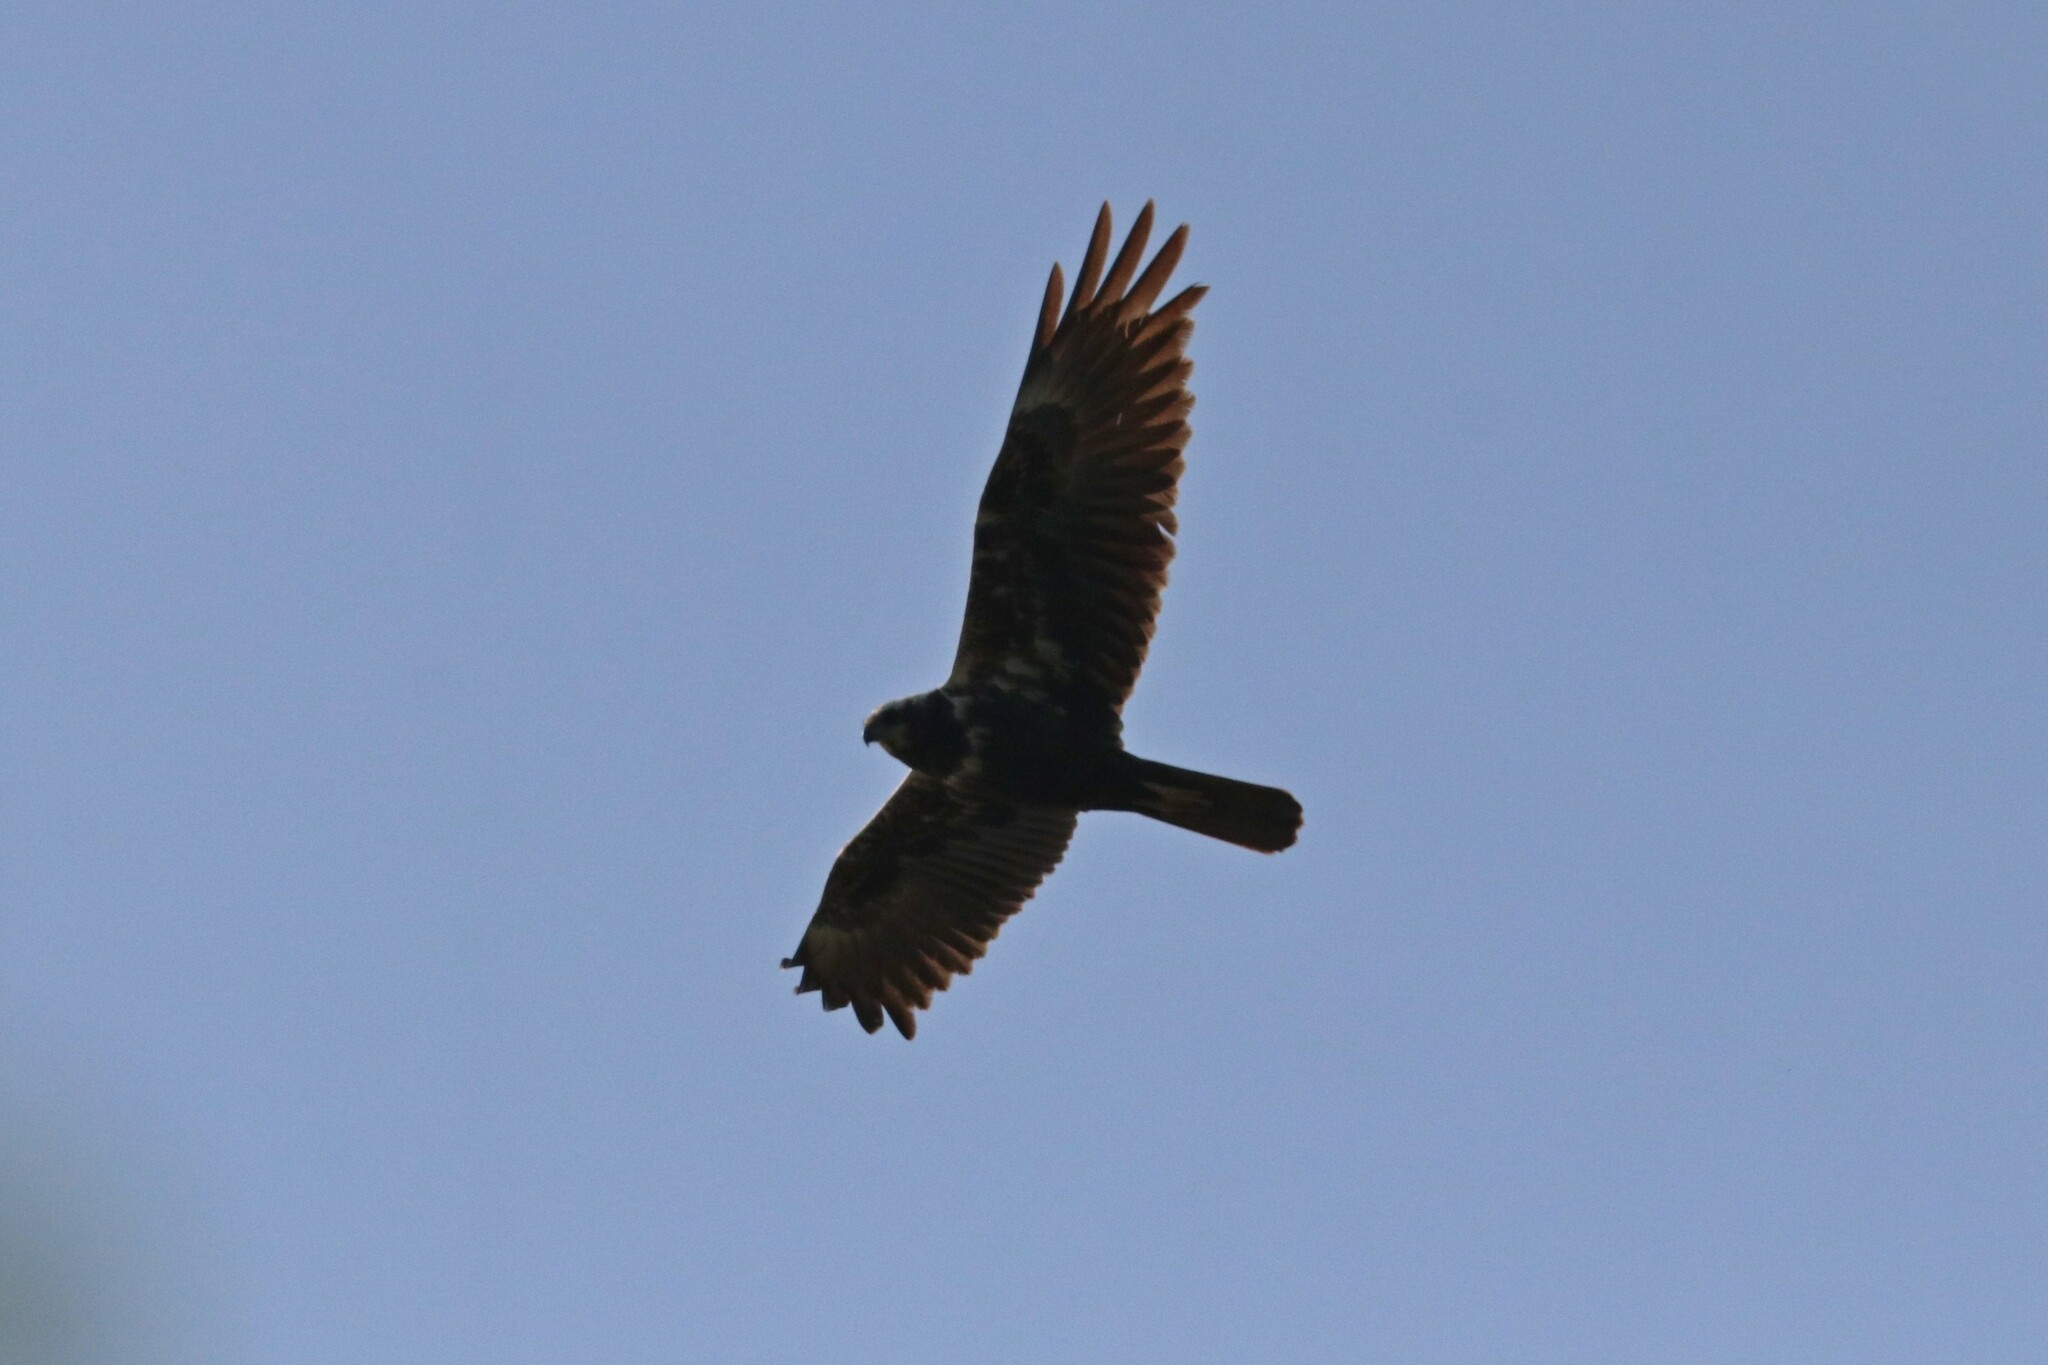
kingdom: Animalia
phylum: Chordata
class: Aves
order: Accipitriformes
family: Accipitridae
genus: Circus
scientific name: Circus aeruginosus
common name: Western marsh harrier
